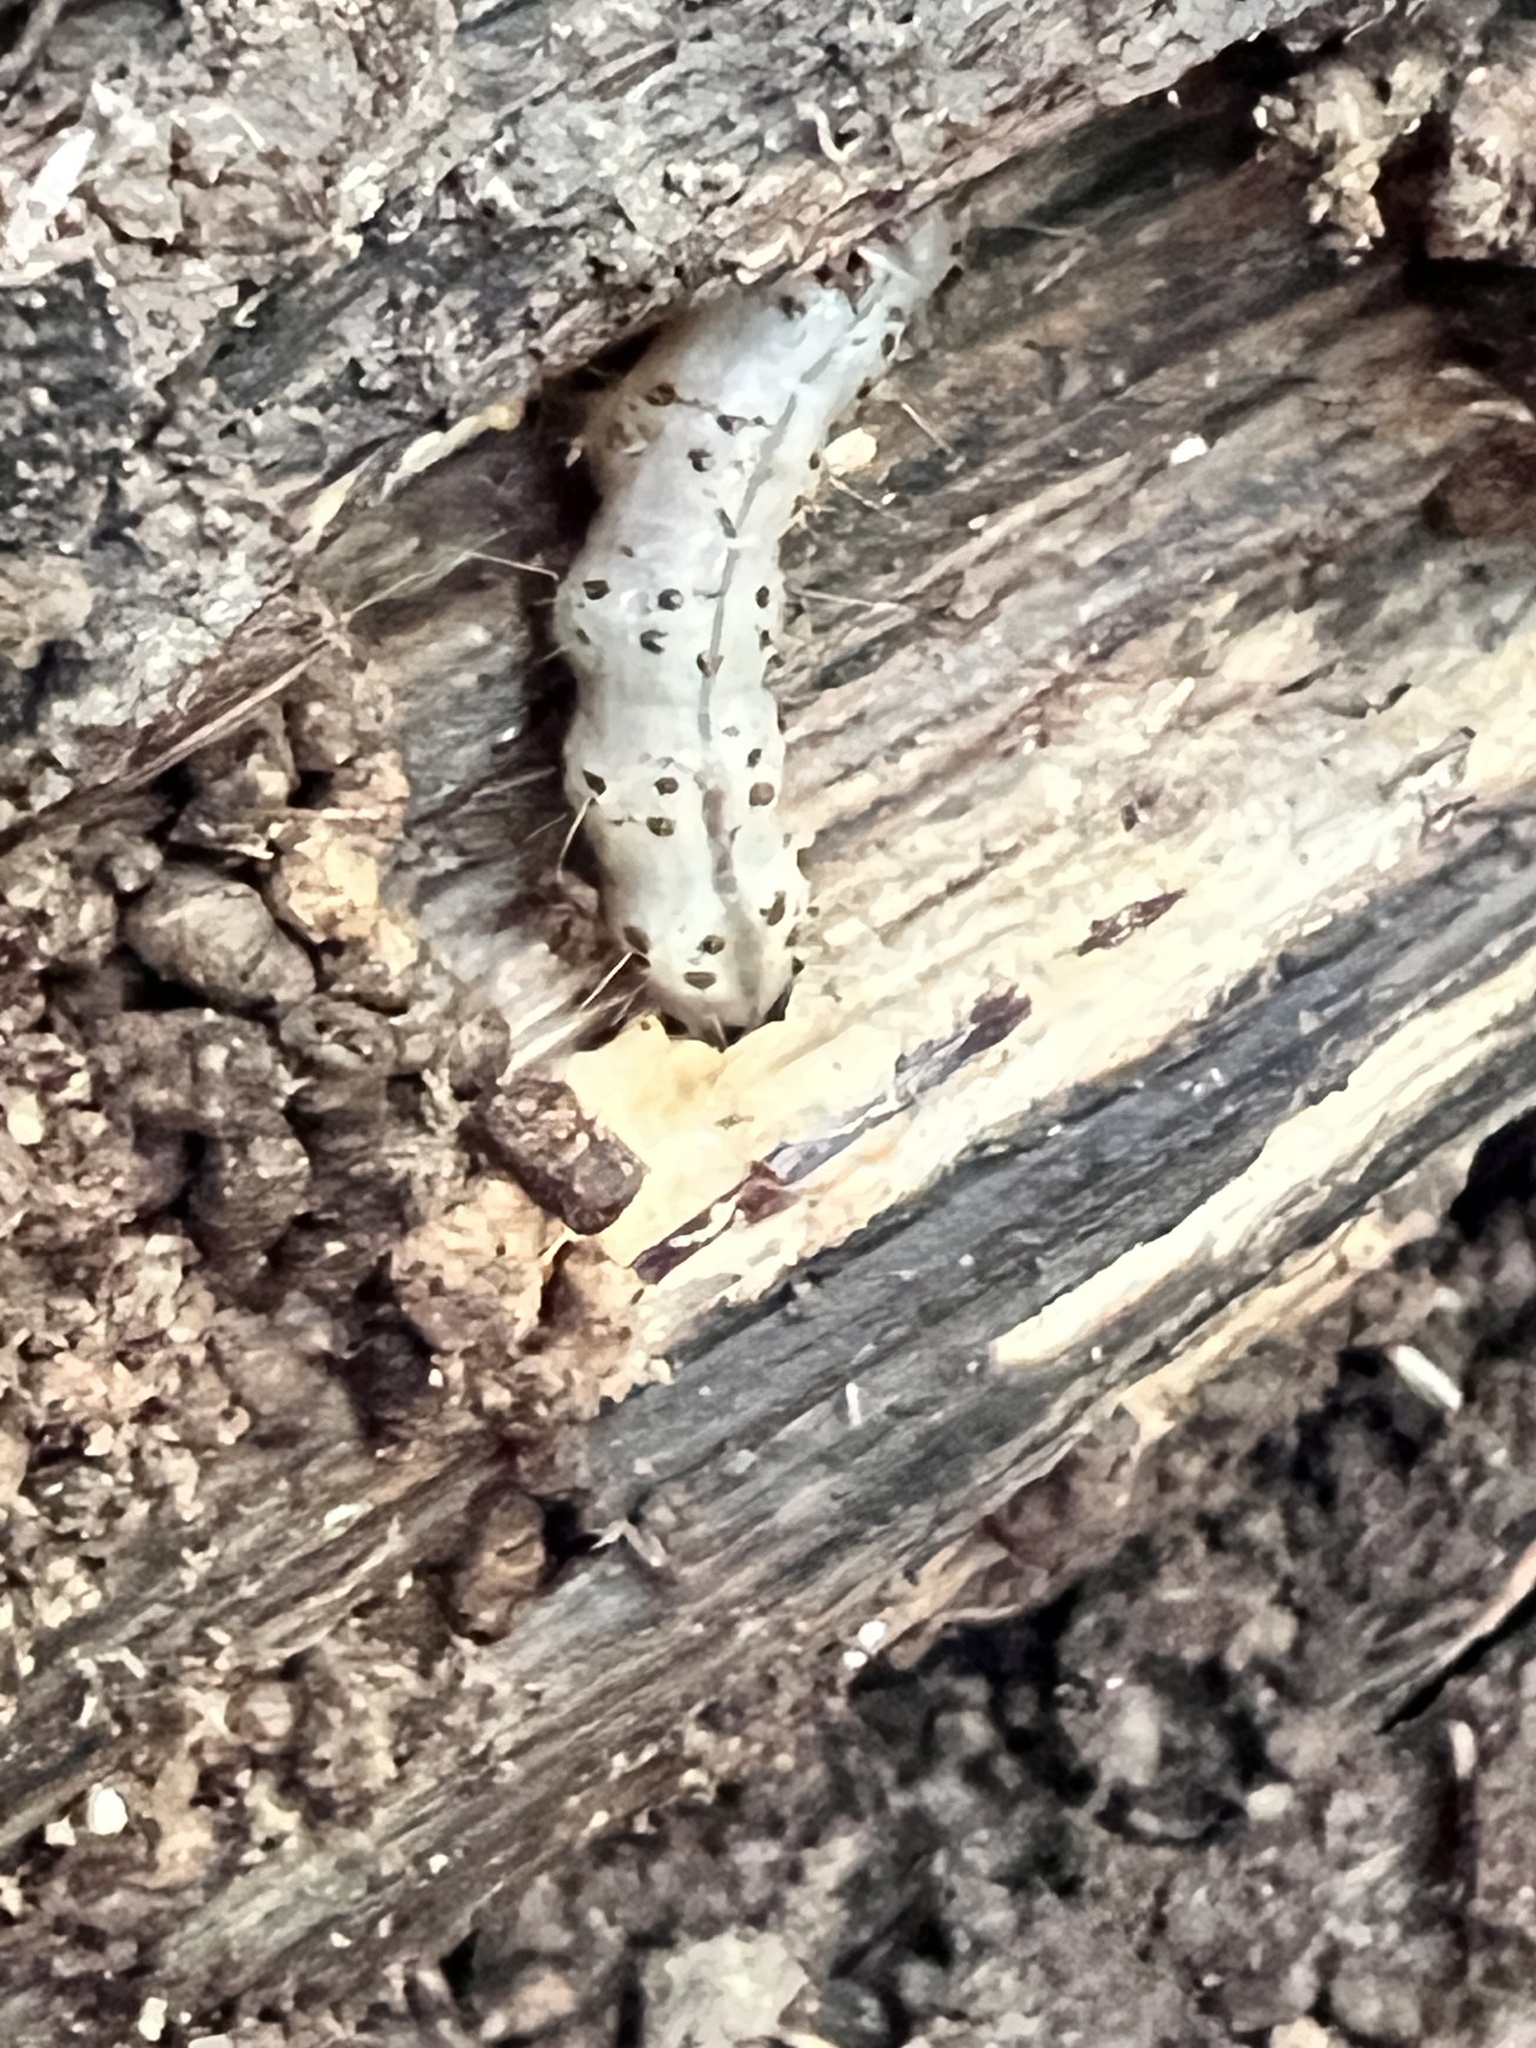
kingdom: Animalia
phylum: Arthropoda
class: Insecta
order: Lepidoptera
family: Erebidae
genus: Scolecocampa
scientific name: Scolecocampa liburna
